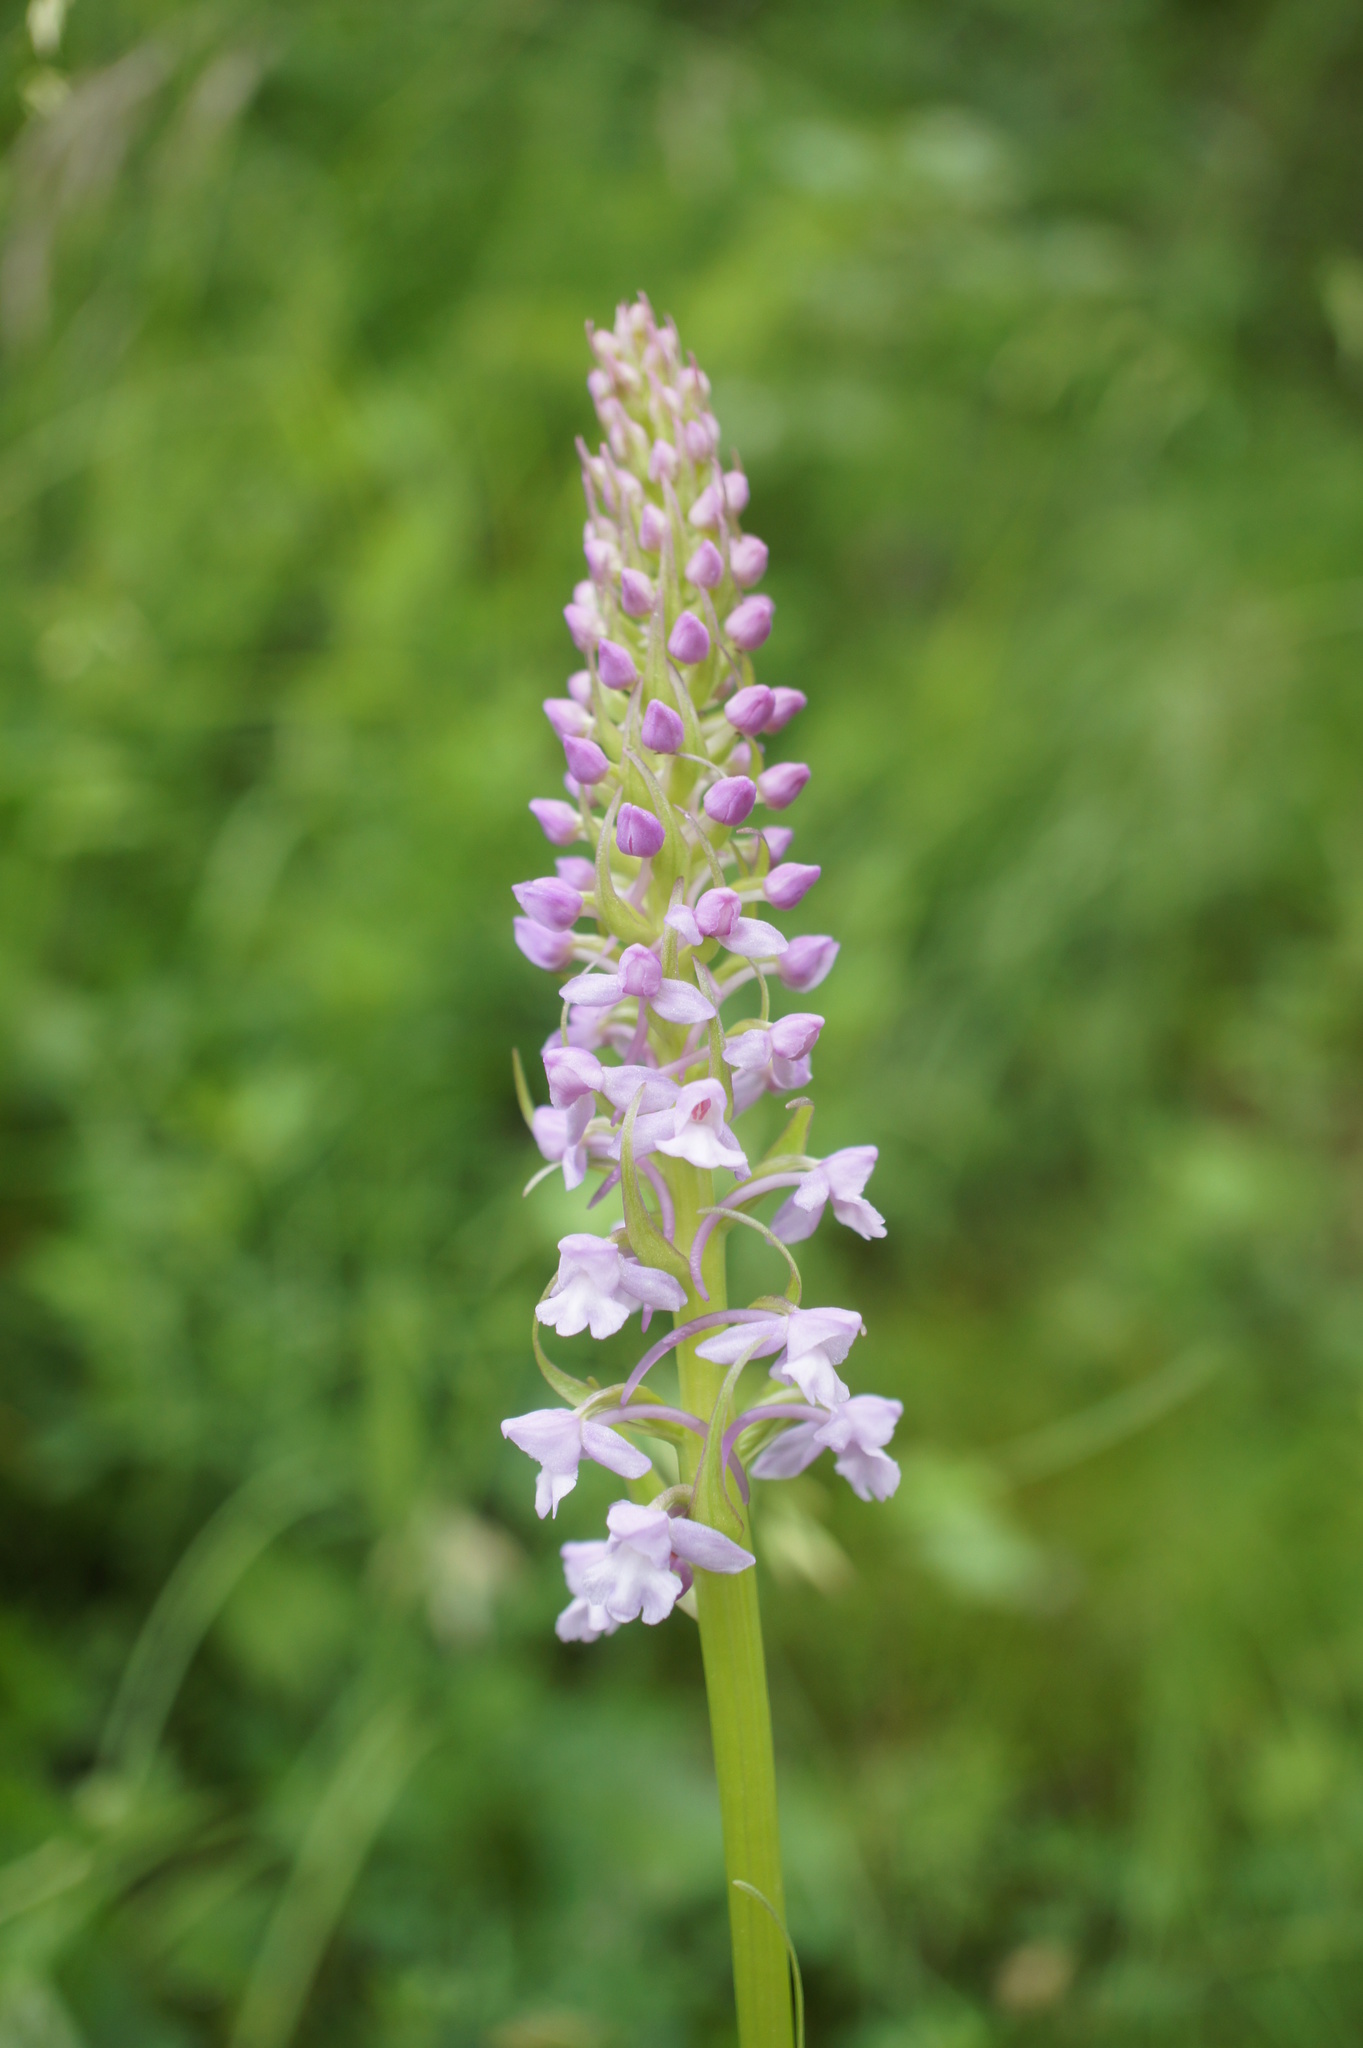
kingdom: Plantae
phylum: Tracheophyta
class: Liliopsida
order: Asparagales
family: Orchidaceae
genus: Gymnadenia
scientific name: Gymnadenia conopsea
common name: Fragrant orchid
